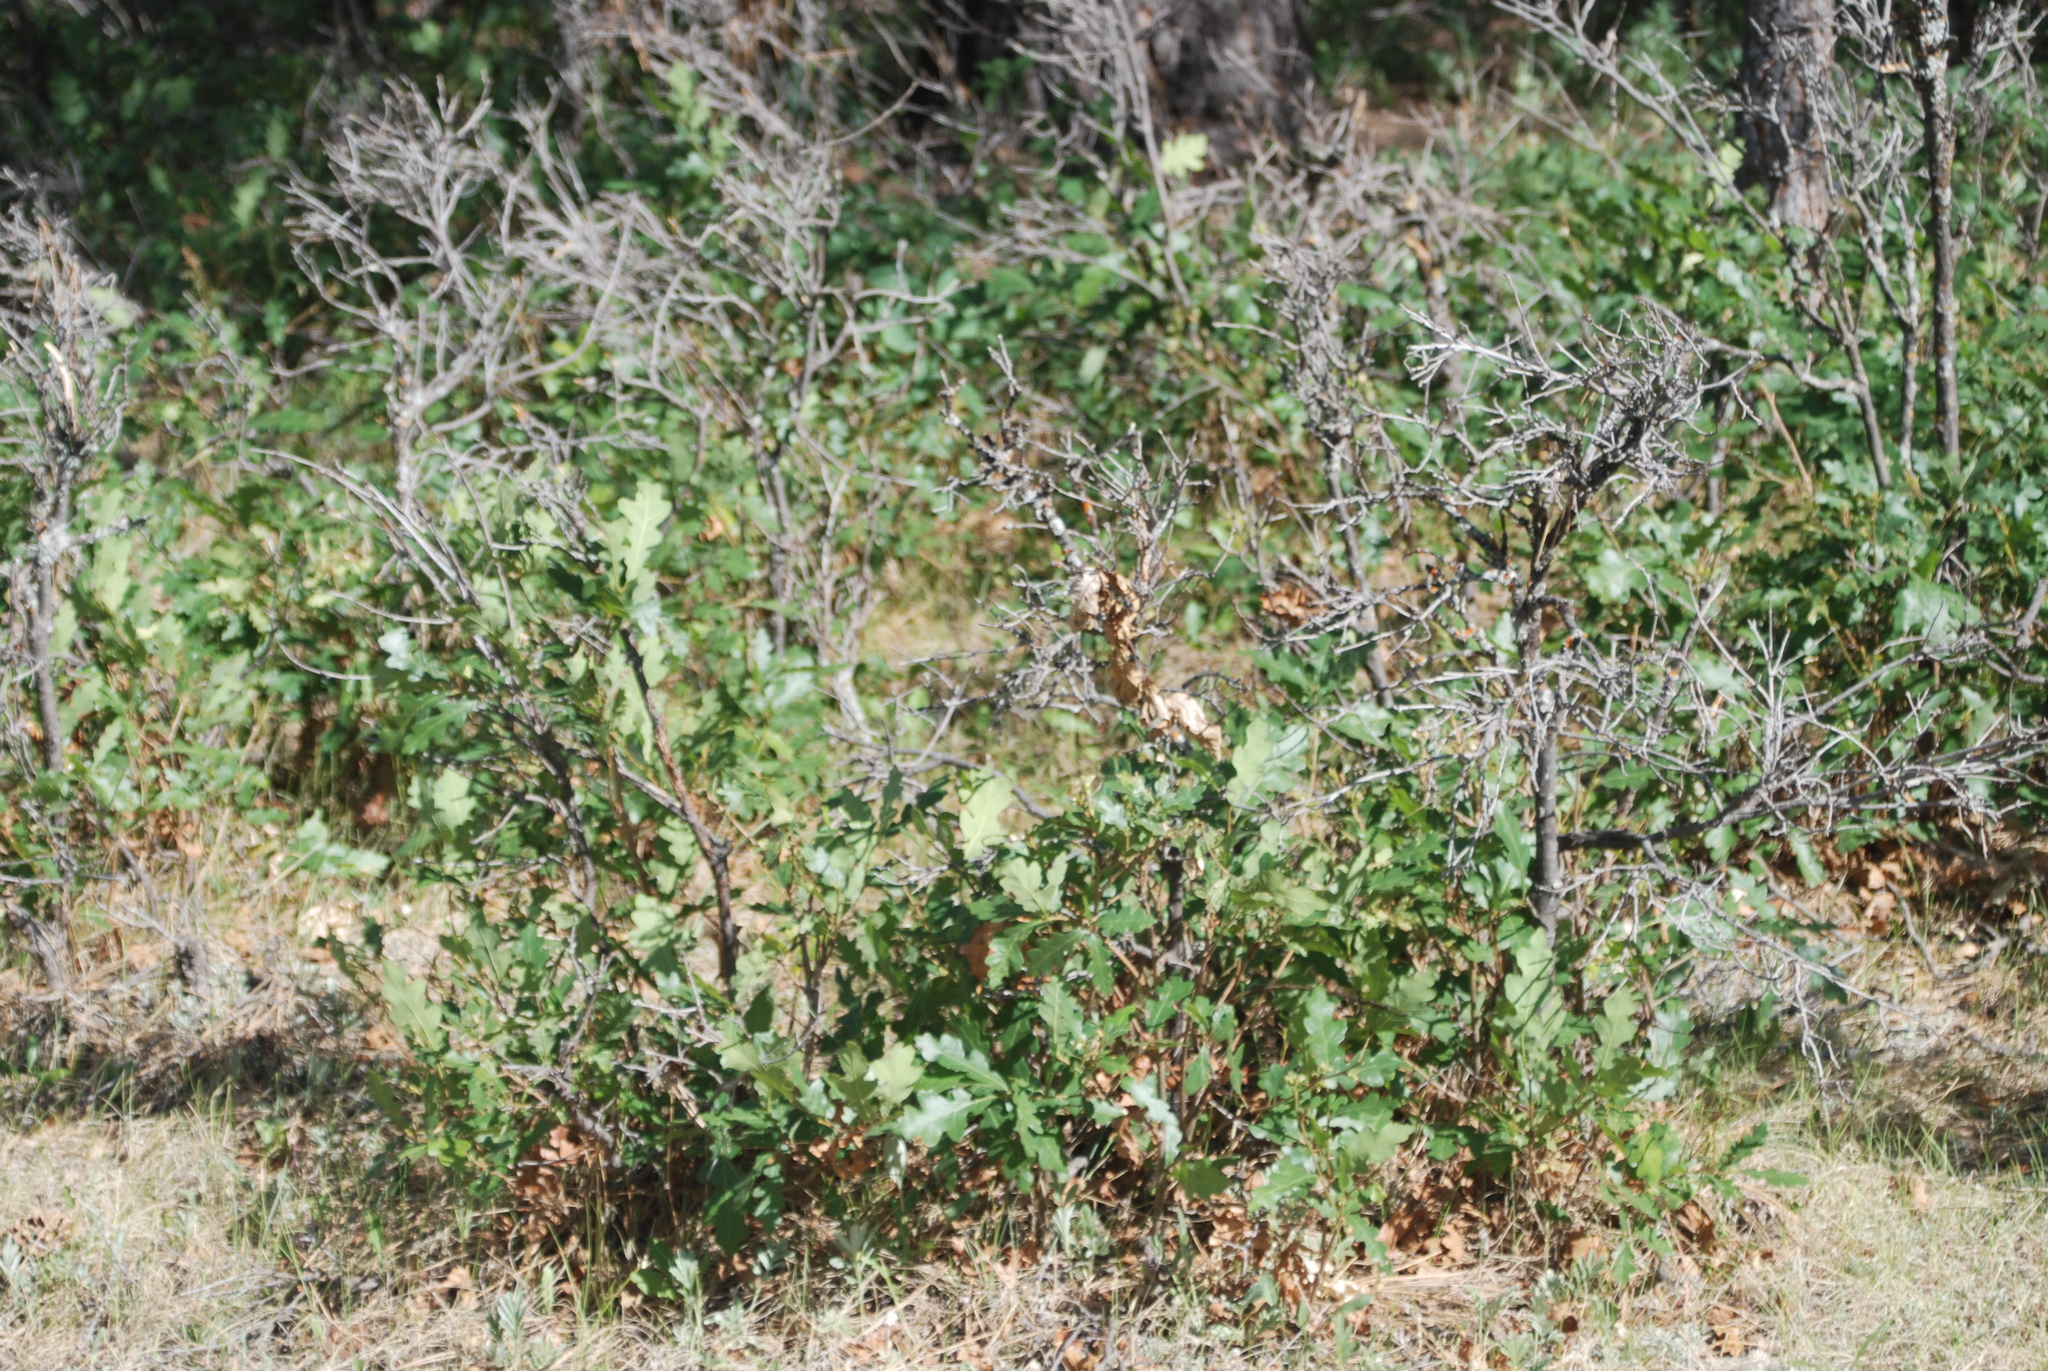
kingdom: Plantae
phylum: Tracheophyta
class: Magnoliopsida
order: Fagales
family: Fagaceae
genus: Quercus
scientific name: Quercus gambelii
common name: Gambel oak
